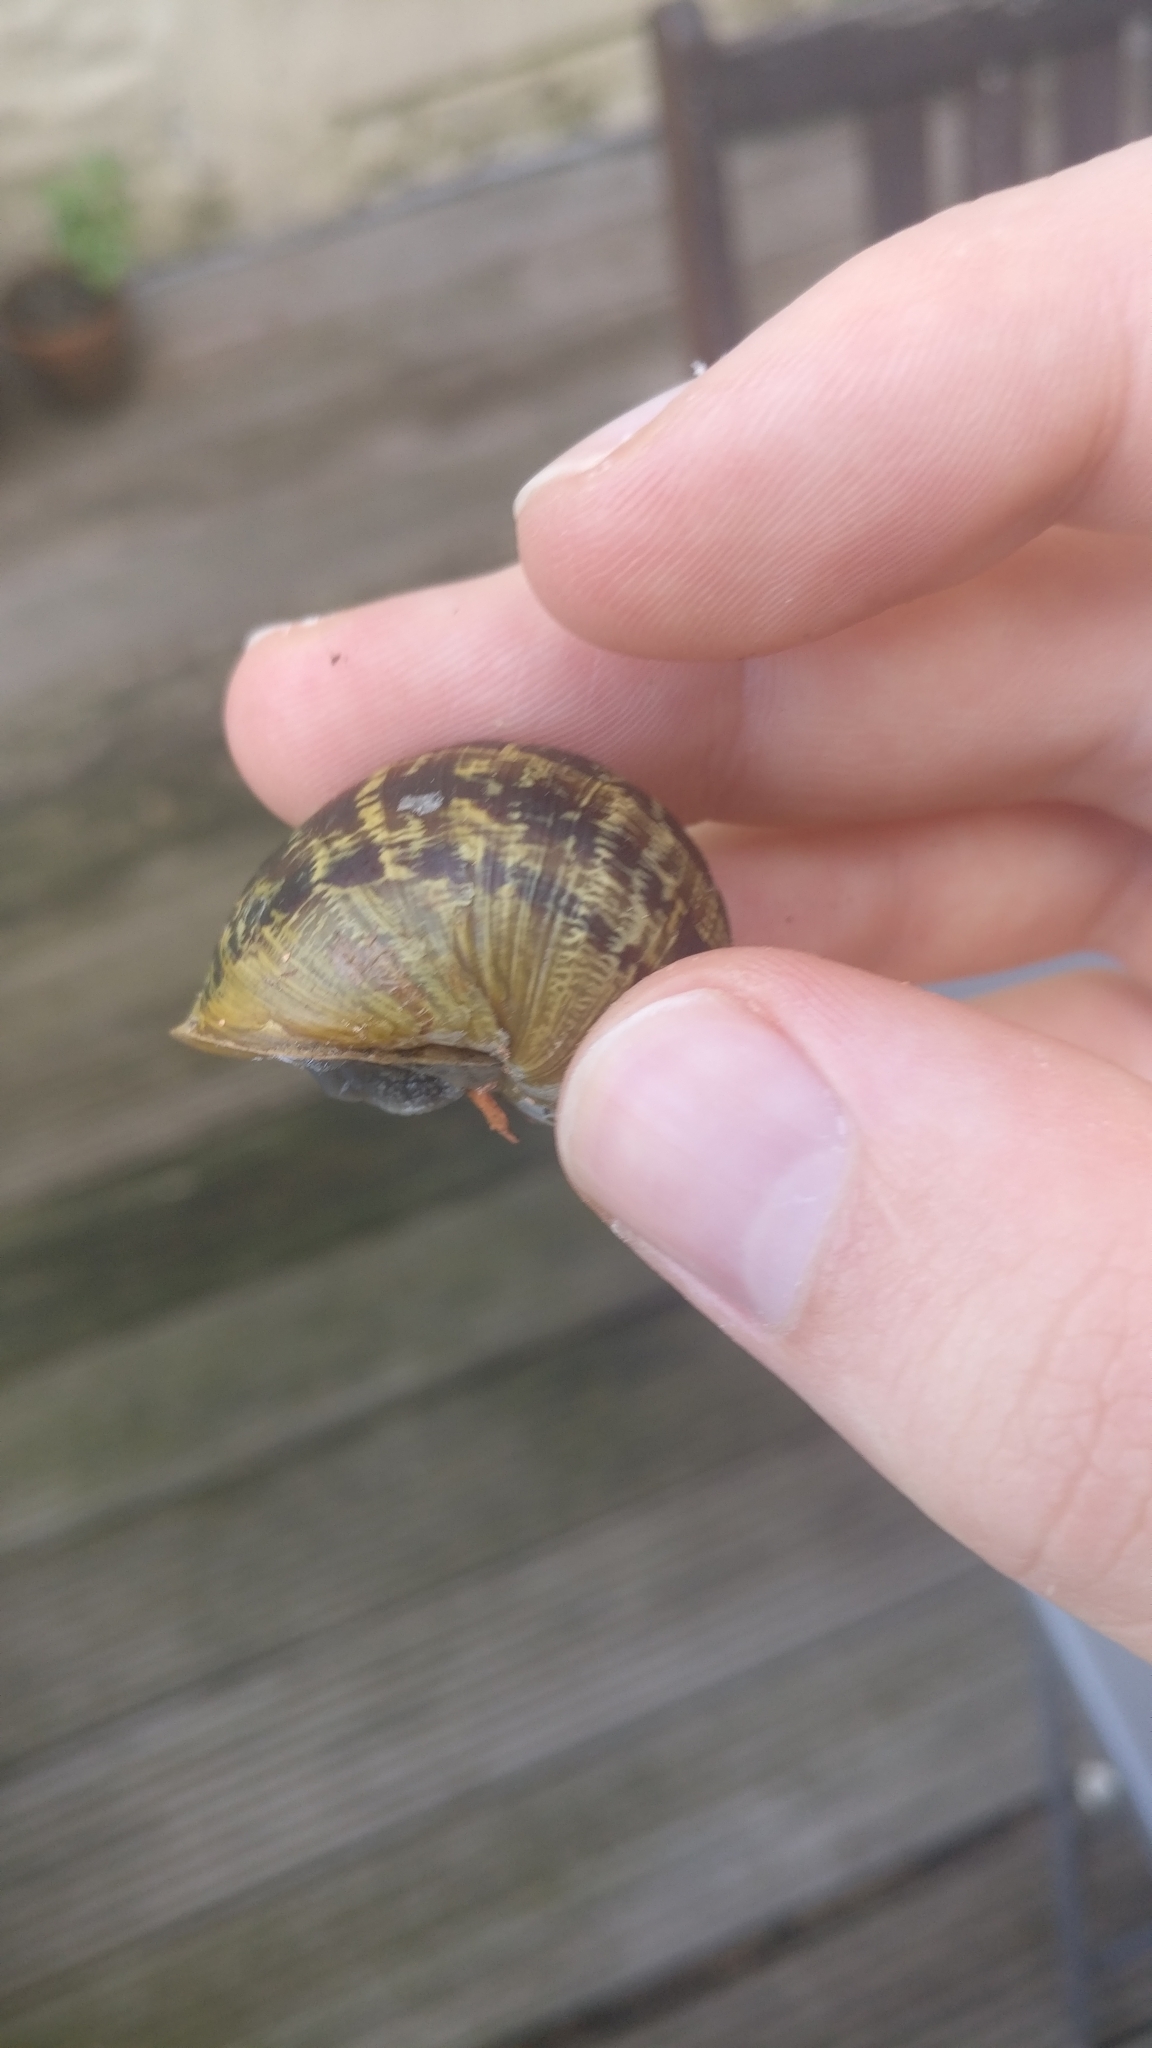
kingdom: Animalia
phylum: Mollusca
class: Gastropoda
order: Stylommatophora
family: Helicidae
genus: Cornu
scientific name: Cornu aspersum
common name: Brown garden snail
